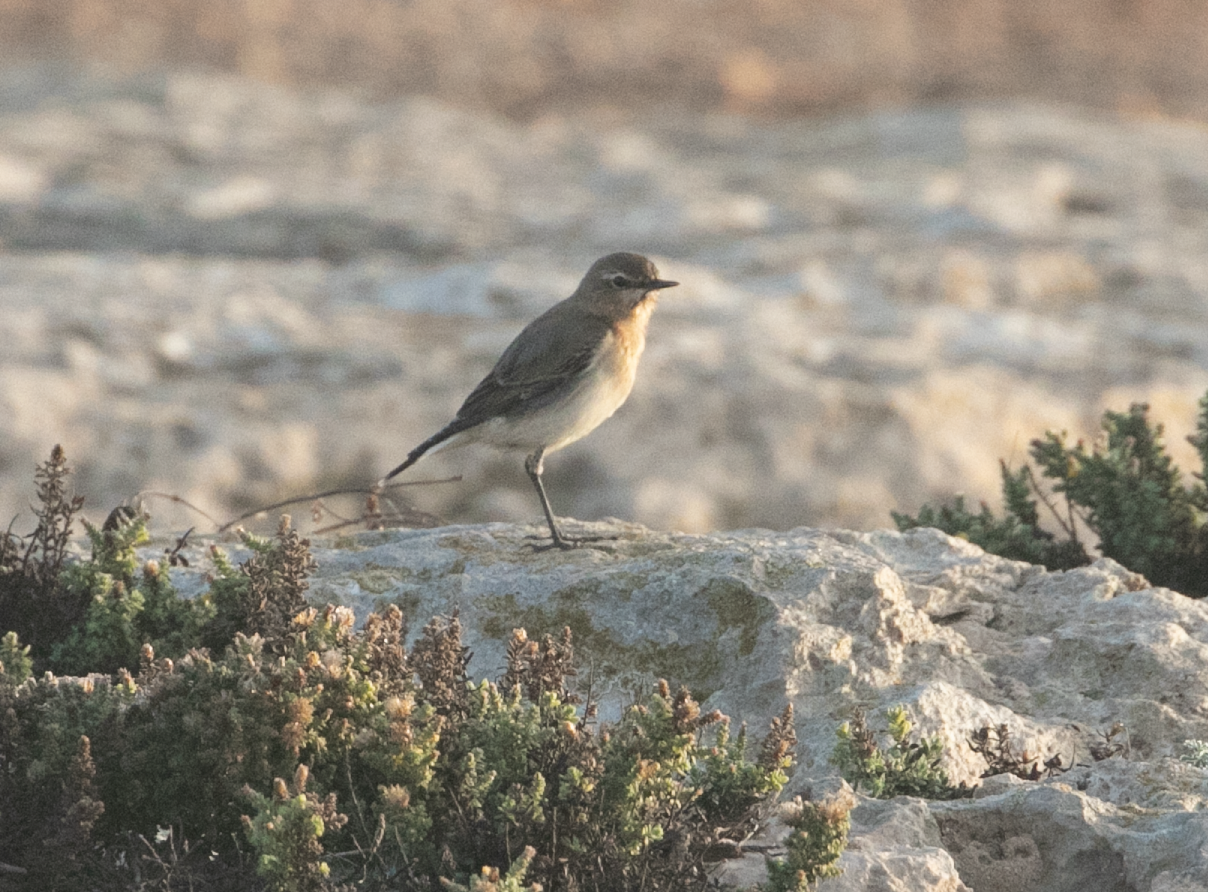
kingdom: Animalia
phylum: Chordata
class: Aves
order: Passeriformes
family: Muscicapidae
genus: Oenanthe
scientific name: Oenanthe oenanthe
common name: Northern wheatear
